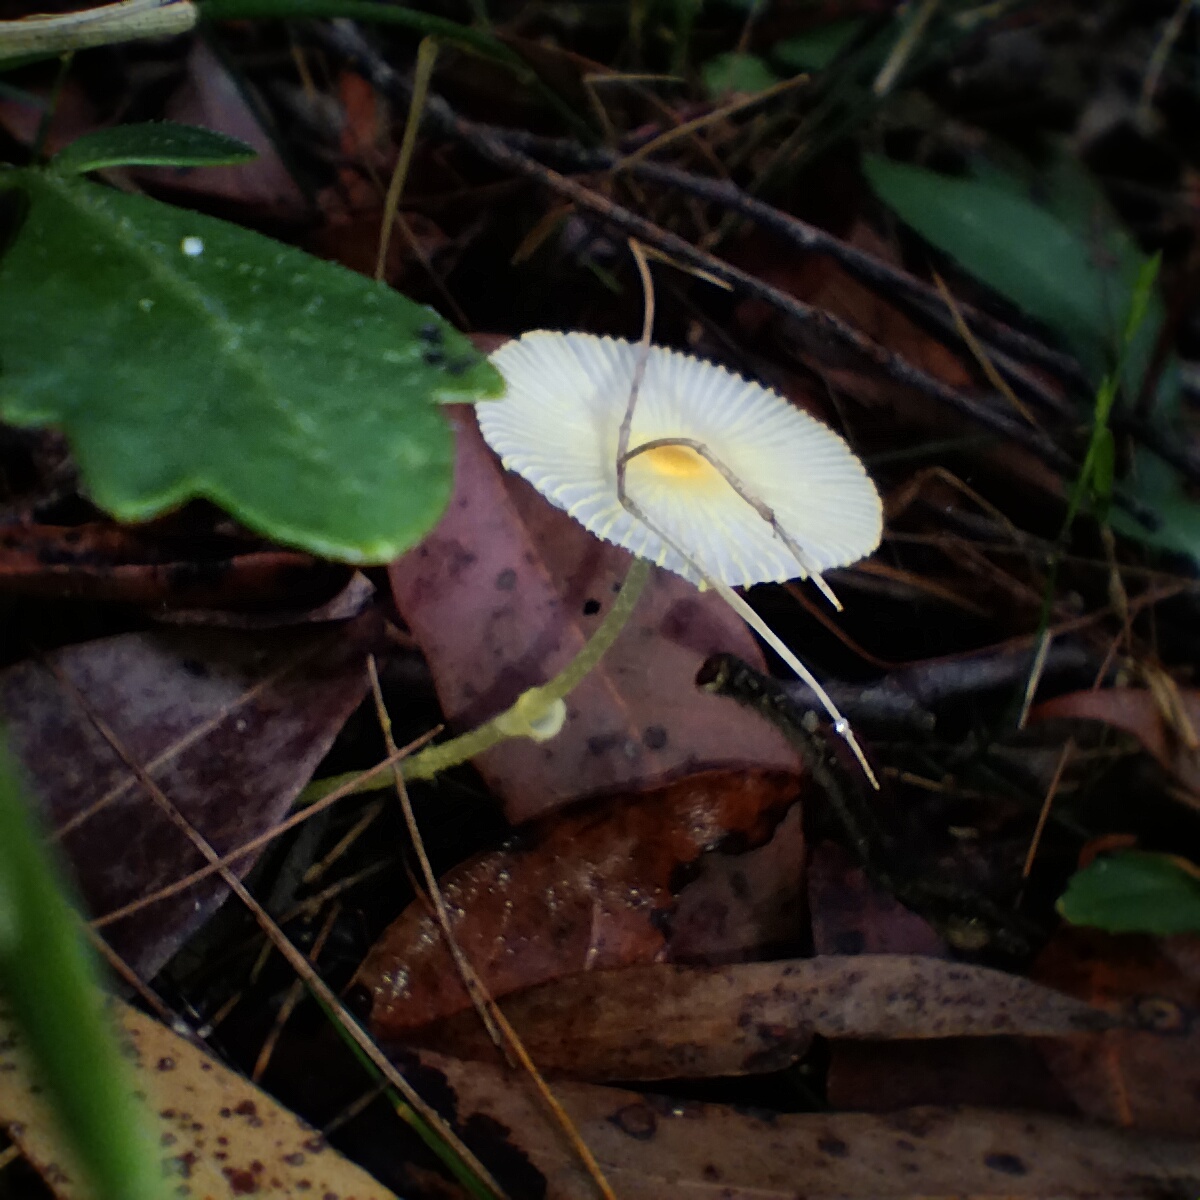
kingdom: Fungi
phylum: Basidiomycota
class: Agaricomycetes
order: Agaricales
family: Agaricaceae
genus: Leucocoprinus
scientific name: Leucocoprinus fragilissimus
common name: Fragile dapperling
